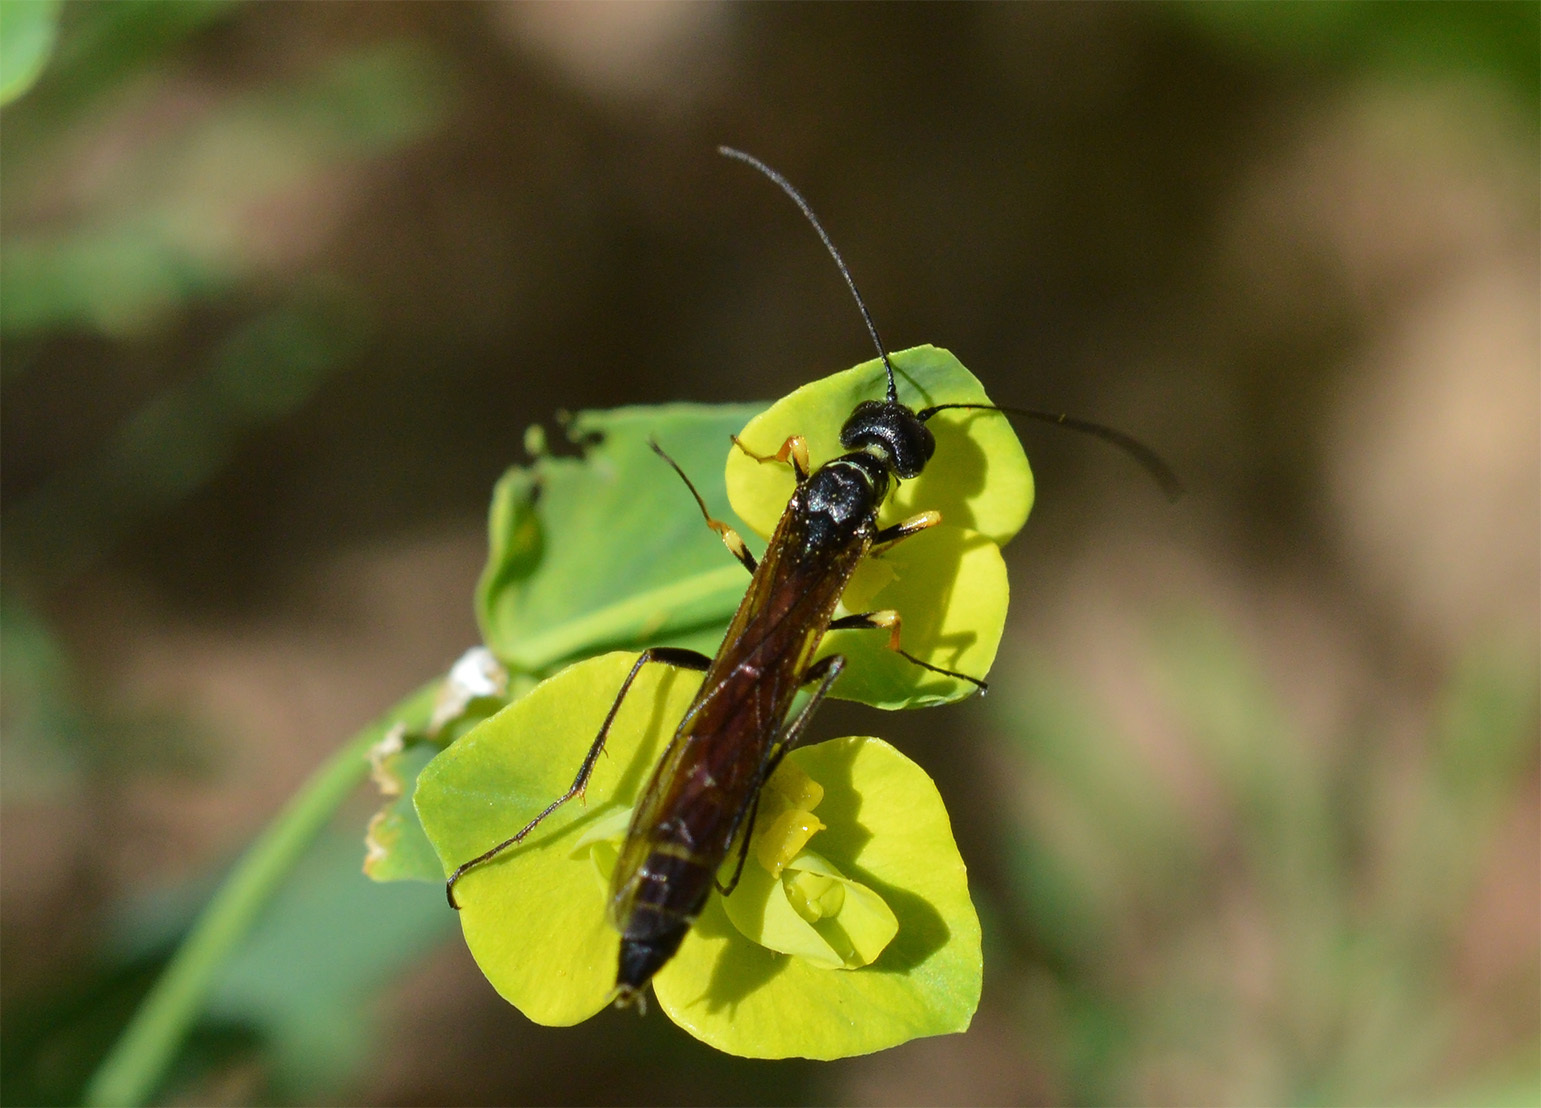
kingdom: Animalia
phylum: Arthropoda
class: Insecta
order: Hymenoptera
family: Cephidae
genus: Calameuta
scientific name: Calameuta filiformis
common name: Reed stem borer
